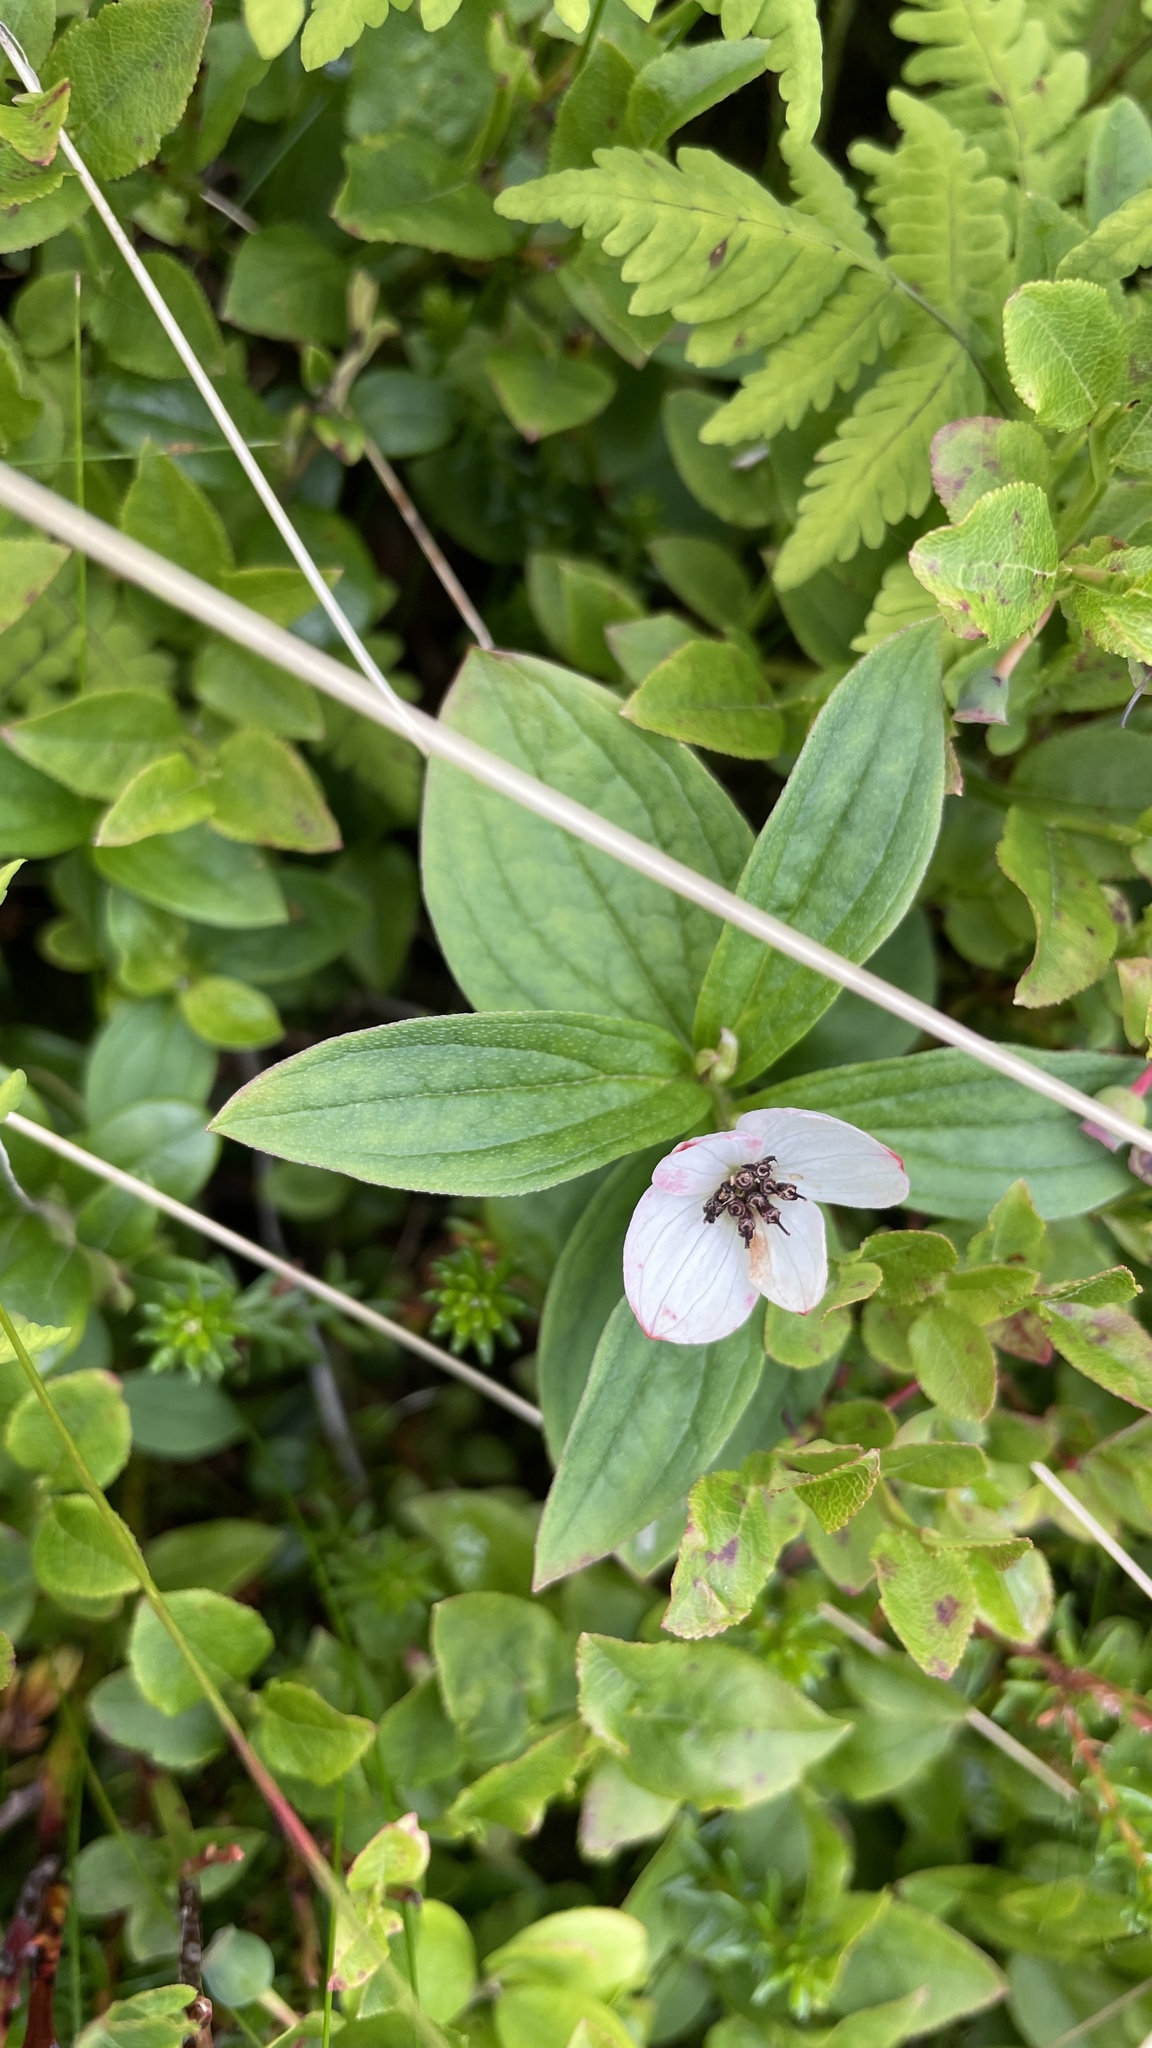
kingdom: Plantae
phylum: Tracheophyta
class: Magnoliopsida
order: Cornales
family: Cornaceae
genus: Cornus
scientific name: Cornus suecica
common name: Dwarf cornel
